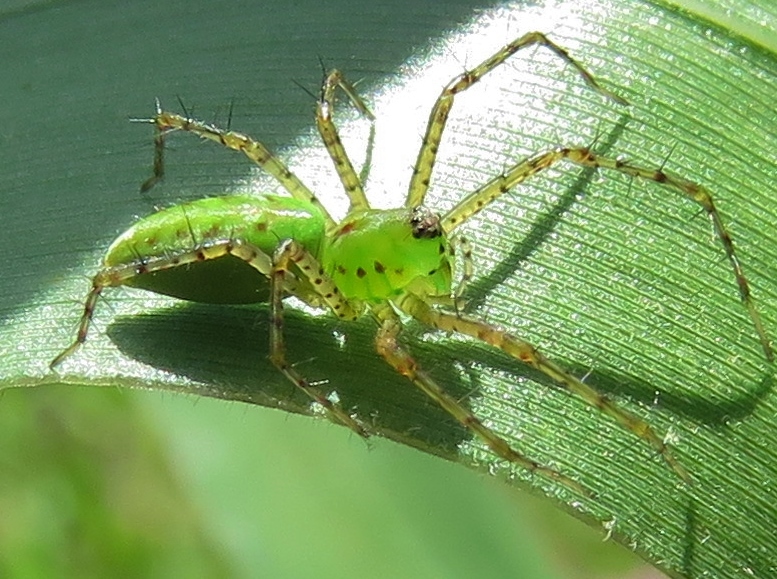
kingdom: Animalia
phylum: Arthropoda
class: Arachnida
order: Araneae
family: Oxyopidae
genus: Peucetia
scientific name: Peucetia viridans
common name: Lynx spiders
